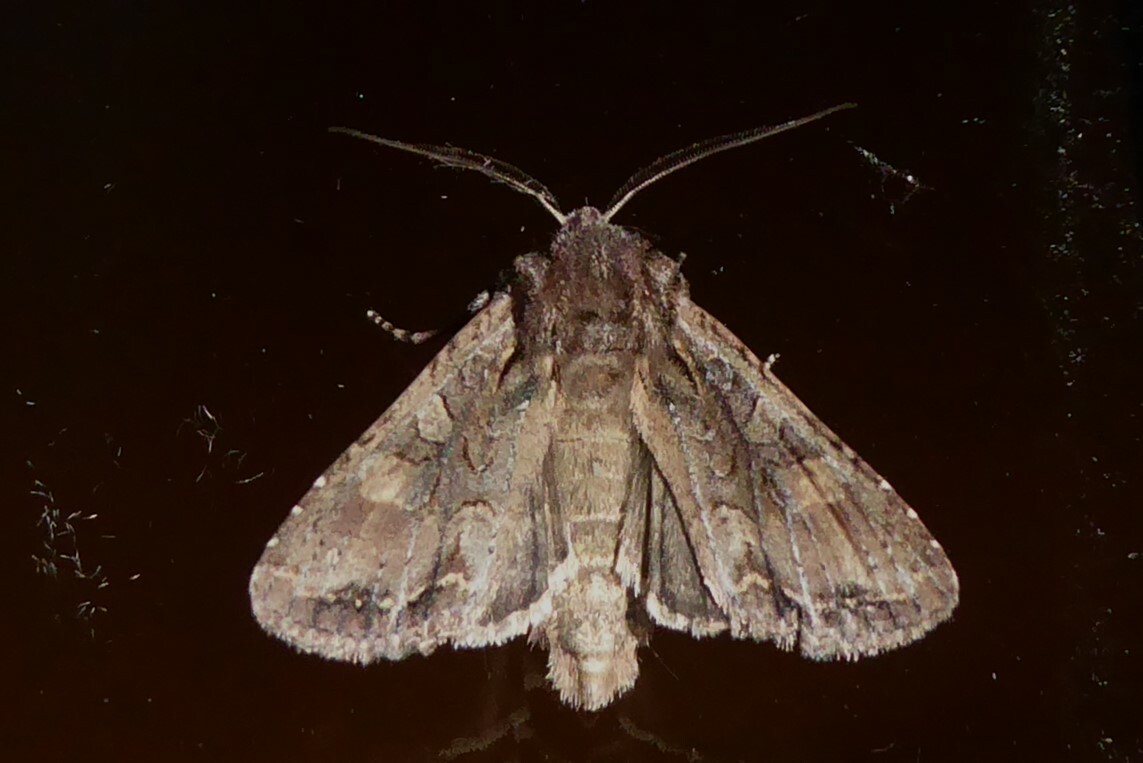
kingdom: Animalia
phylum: Arthropoda
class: Insecta
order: Lepidoptera
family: Noctuidae
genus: Ichneutica
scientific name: Ichneutica mutans
